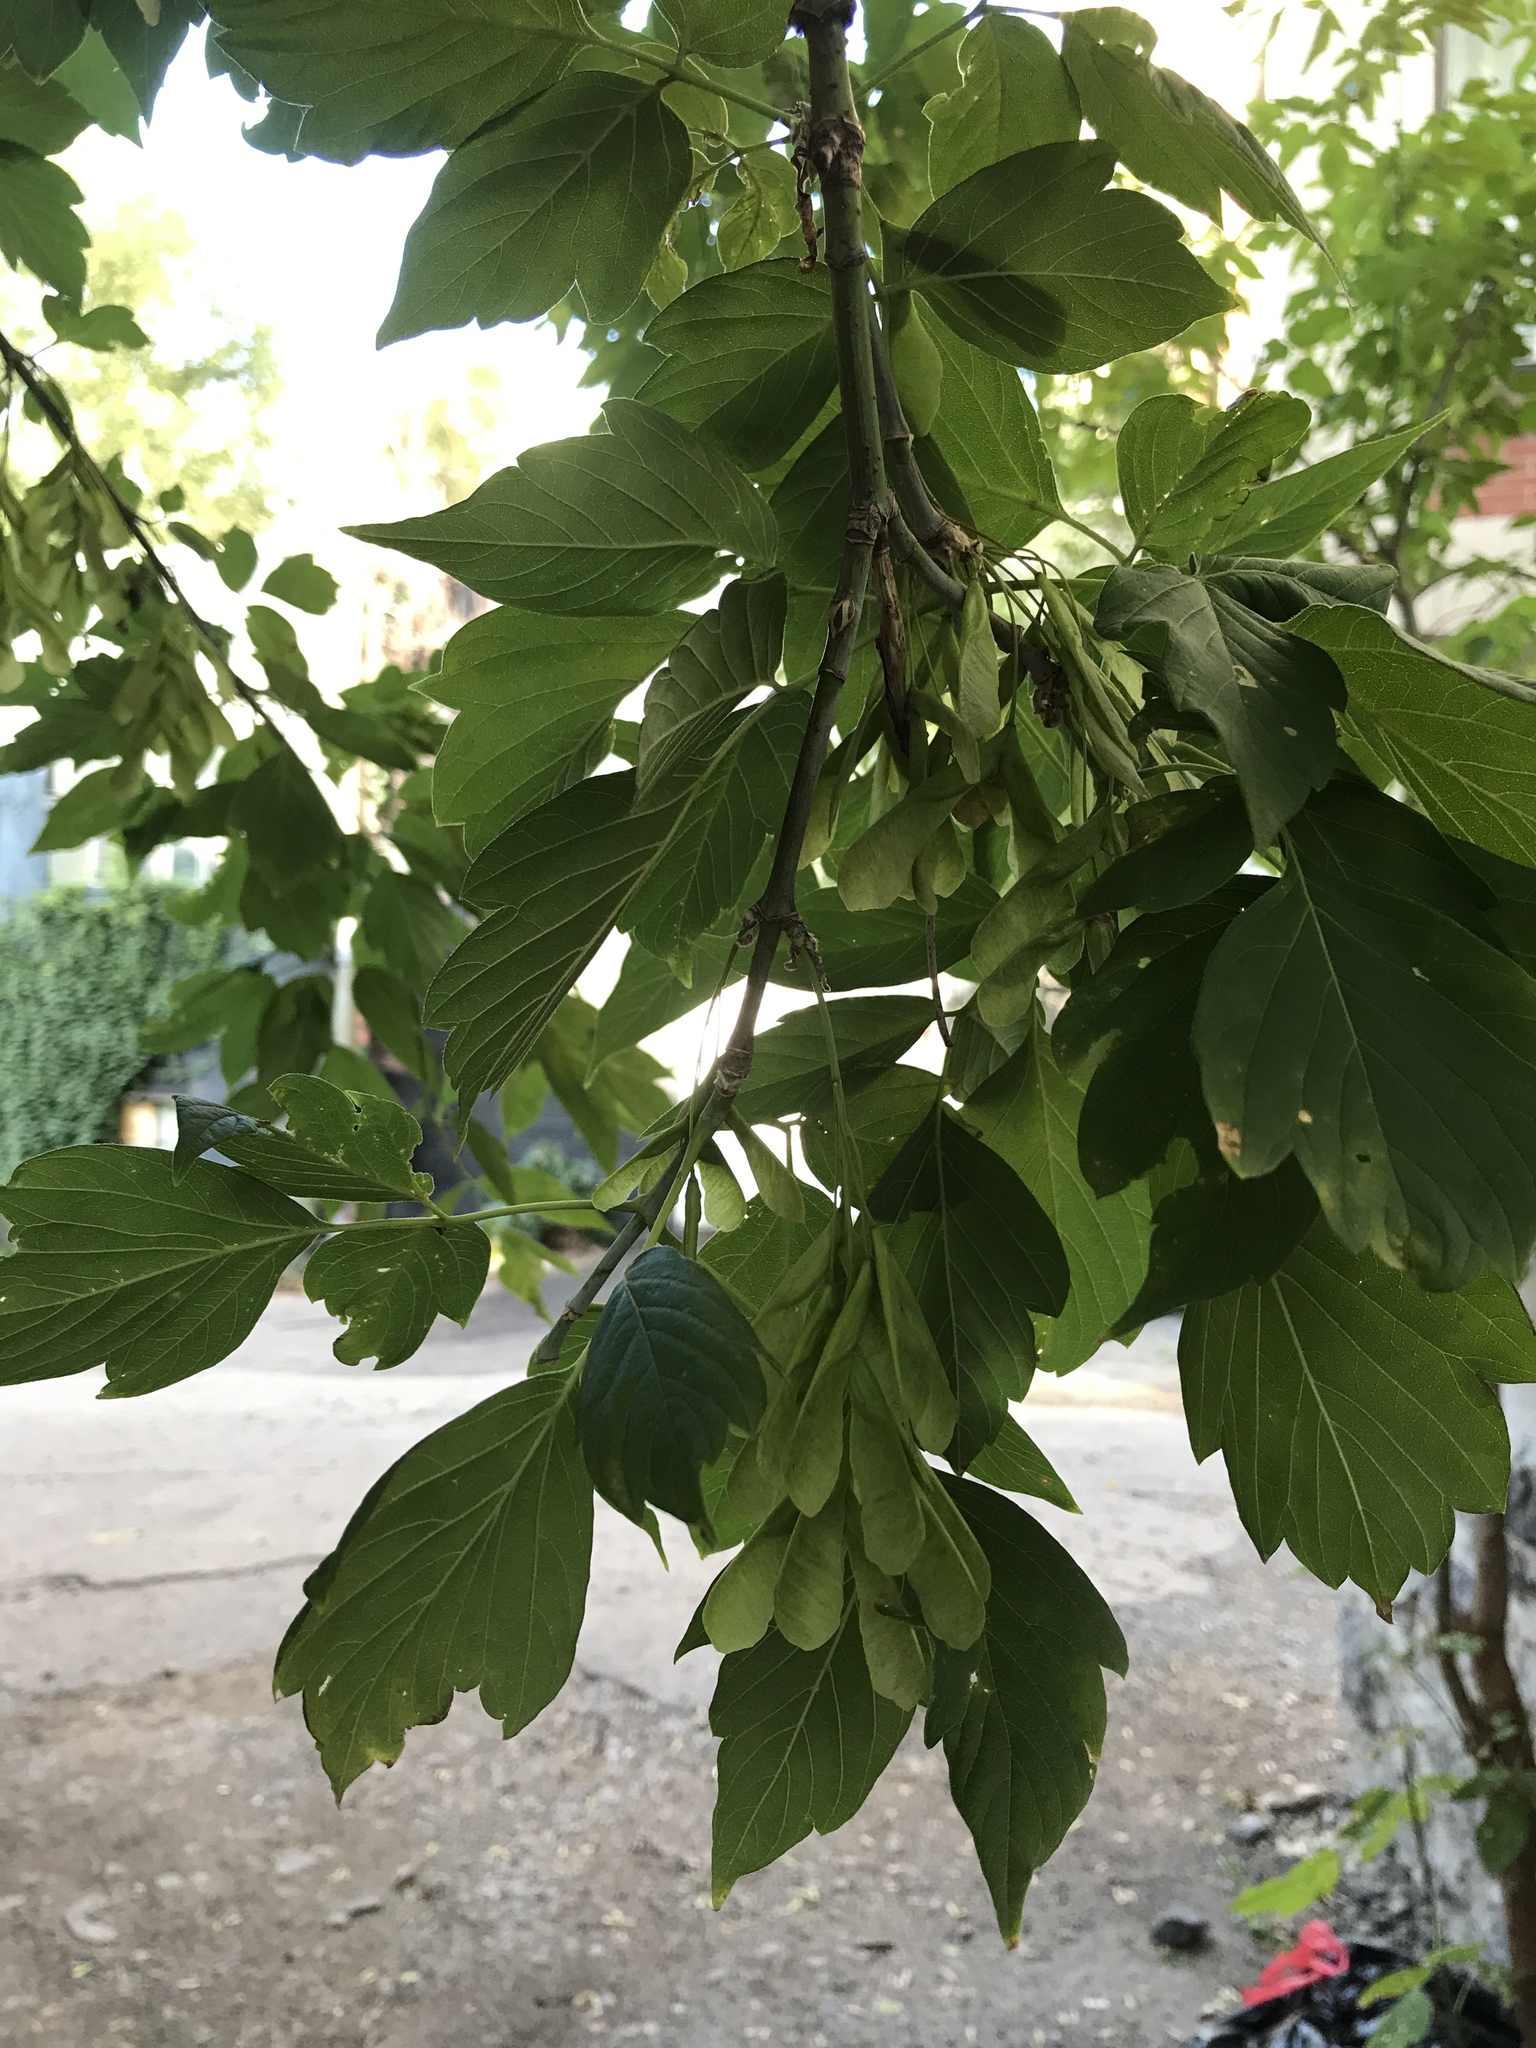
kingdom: Plantae
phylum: Tracheophyta
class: Magnoliopsida
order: Sapindales
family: Sapindaceae
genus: Acer
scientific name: Acer negundo
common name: Ashleaf maple
